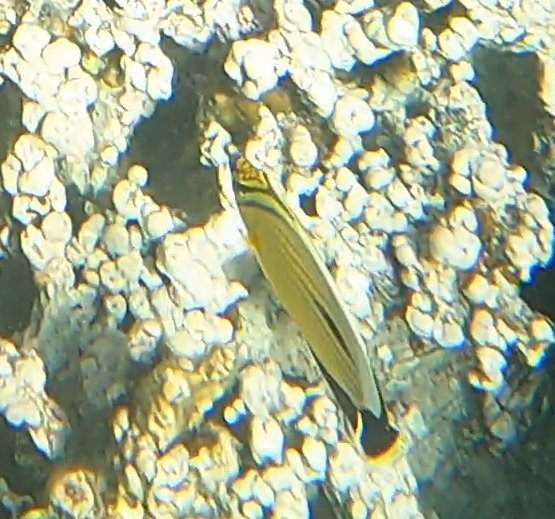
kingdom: Animalia
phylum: Chordata
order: Perciformes
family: Chaetodontidae
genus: Chaetodon
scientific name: Chaetodon austriacus
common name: Exquisite butterflyfish
